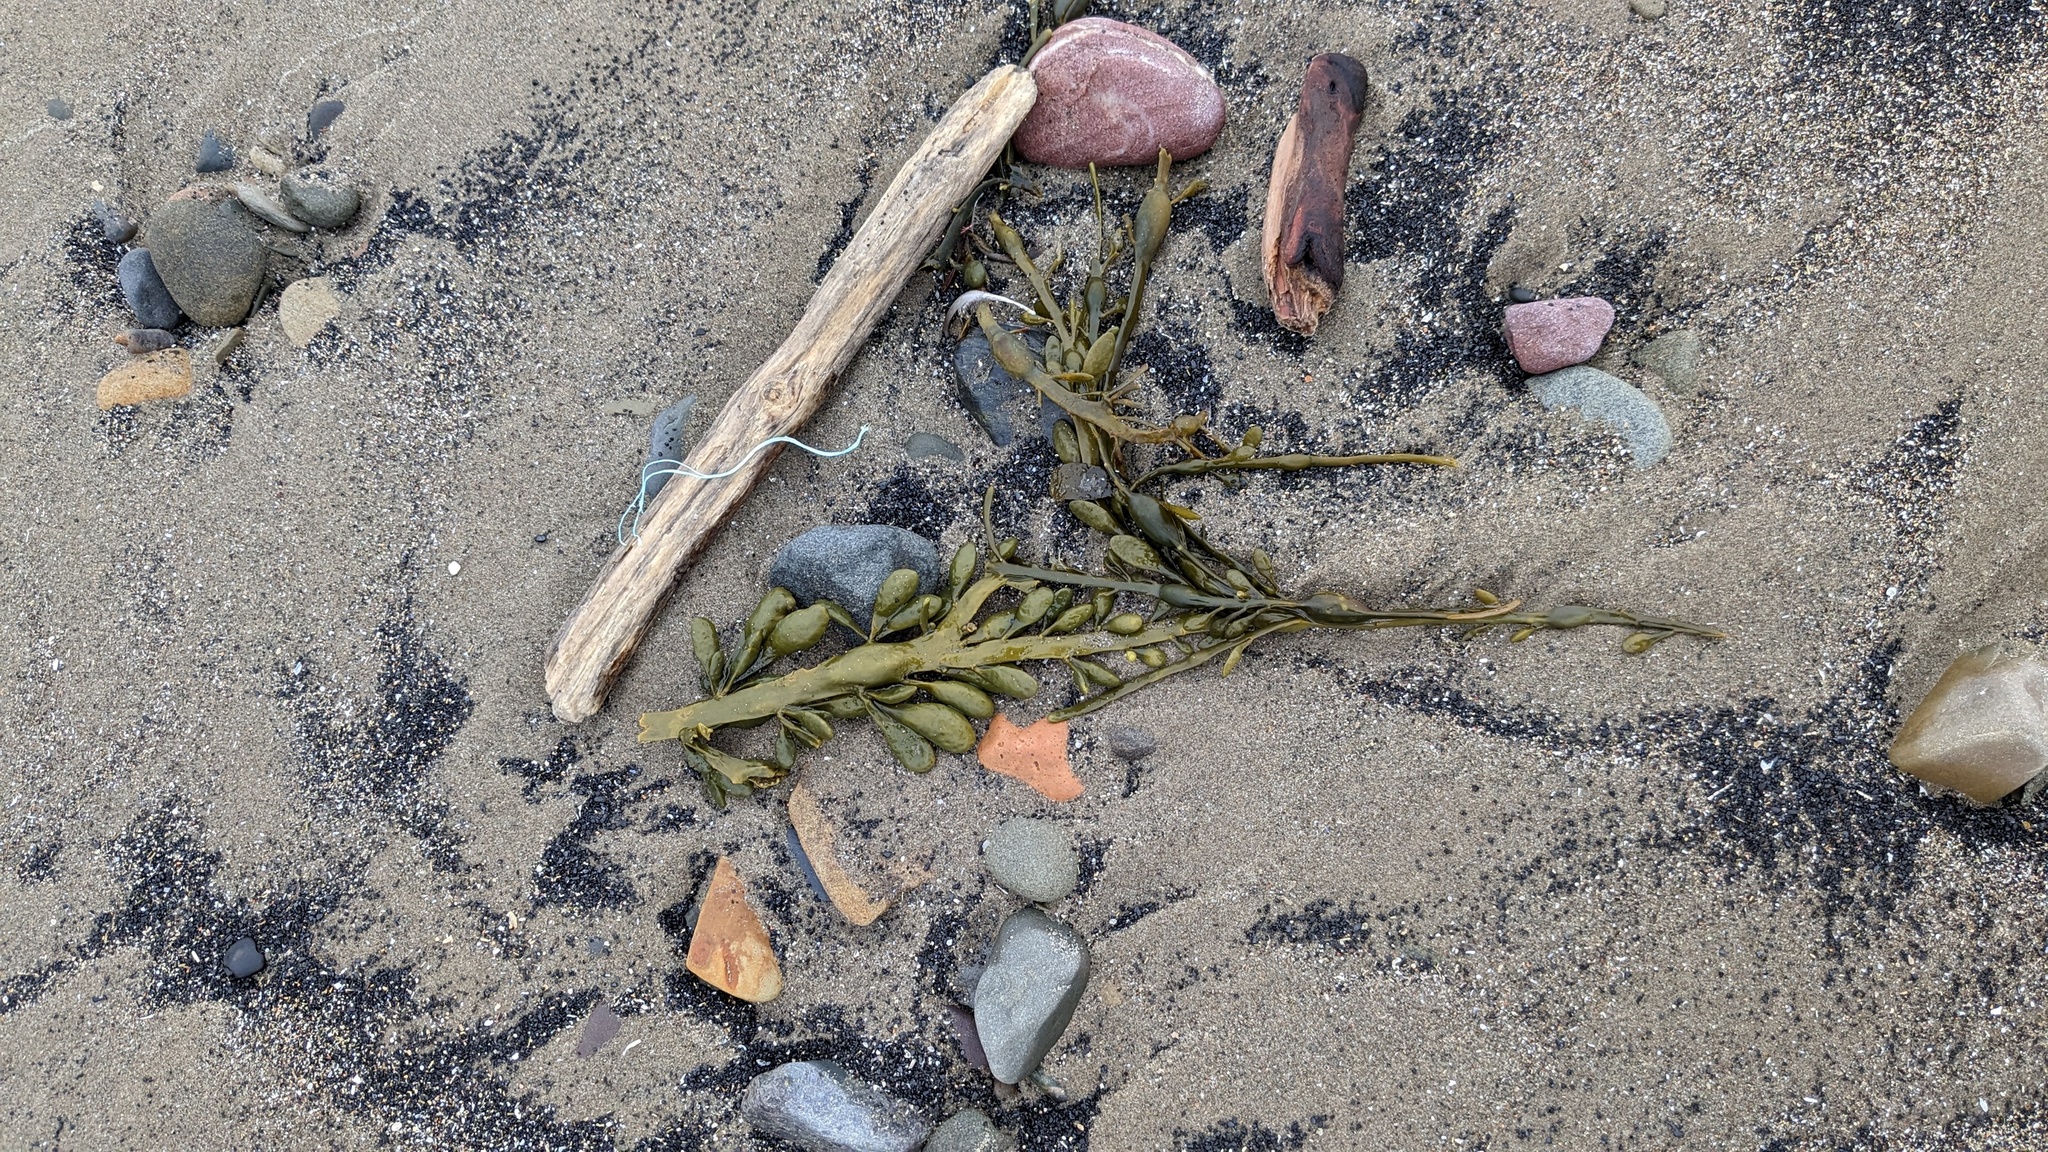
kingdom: Chromista
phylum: Ochrophyta
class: Phaeophyceae
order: Fucales
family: Fucaceae
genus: Ascophyllum
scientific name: Ascophyllum nodosum
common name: Knotted wrack
